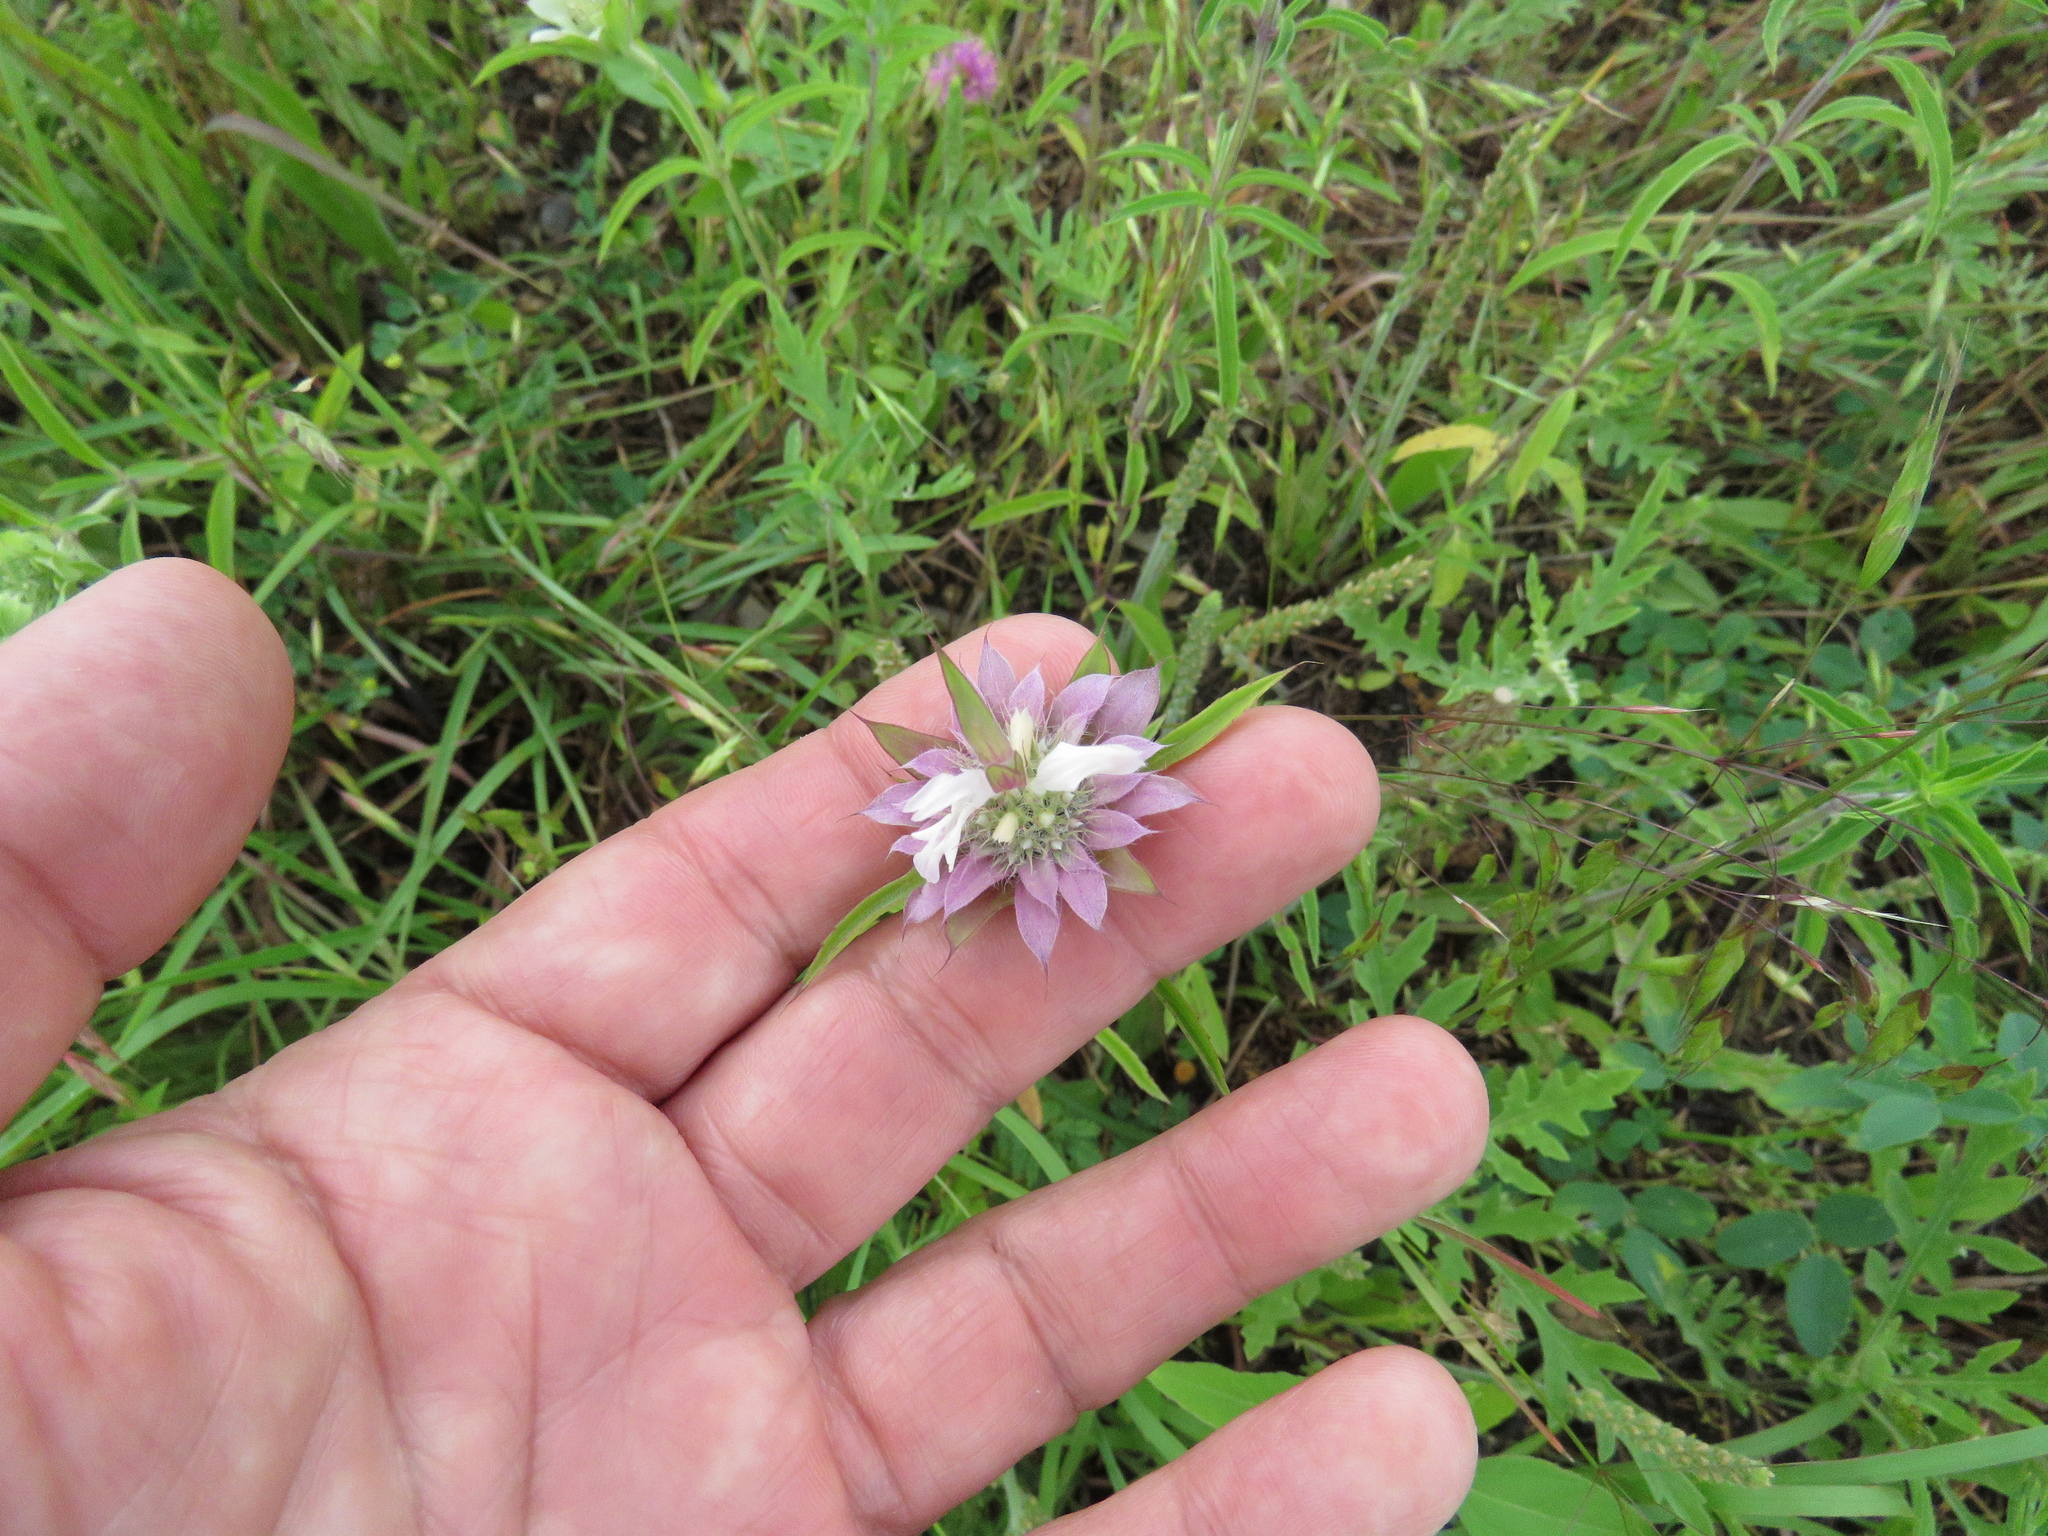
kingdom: Plantae
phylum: Tracheophyta
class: Magnoliopsida
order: Lamiales
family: Lamiaceae
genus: Monarda
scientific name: Monarda citriodora
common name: Lemon beebalm
